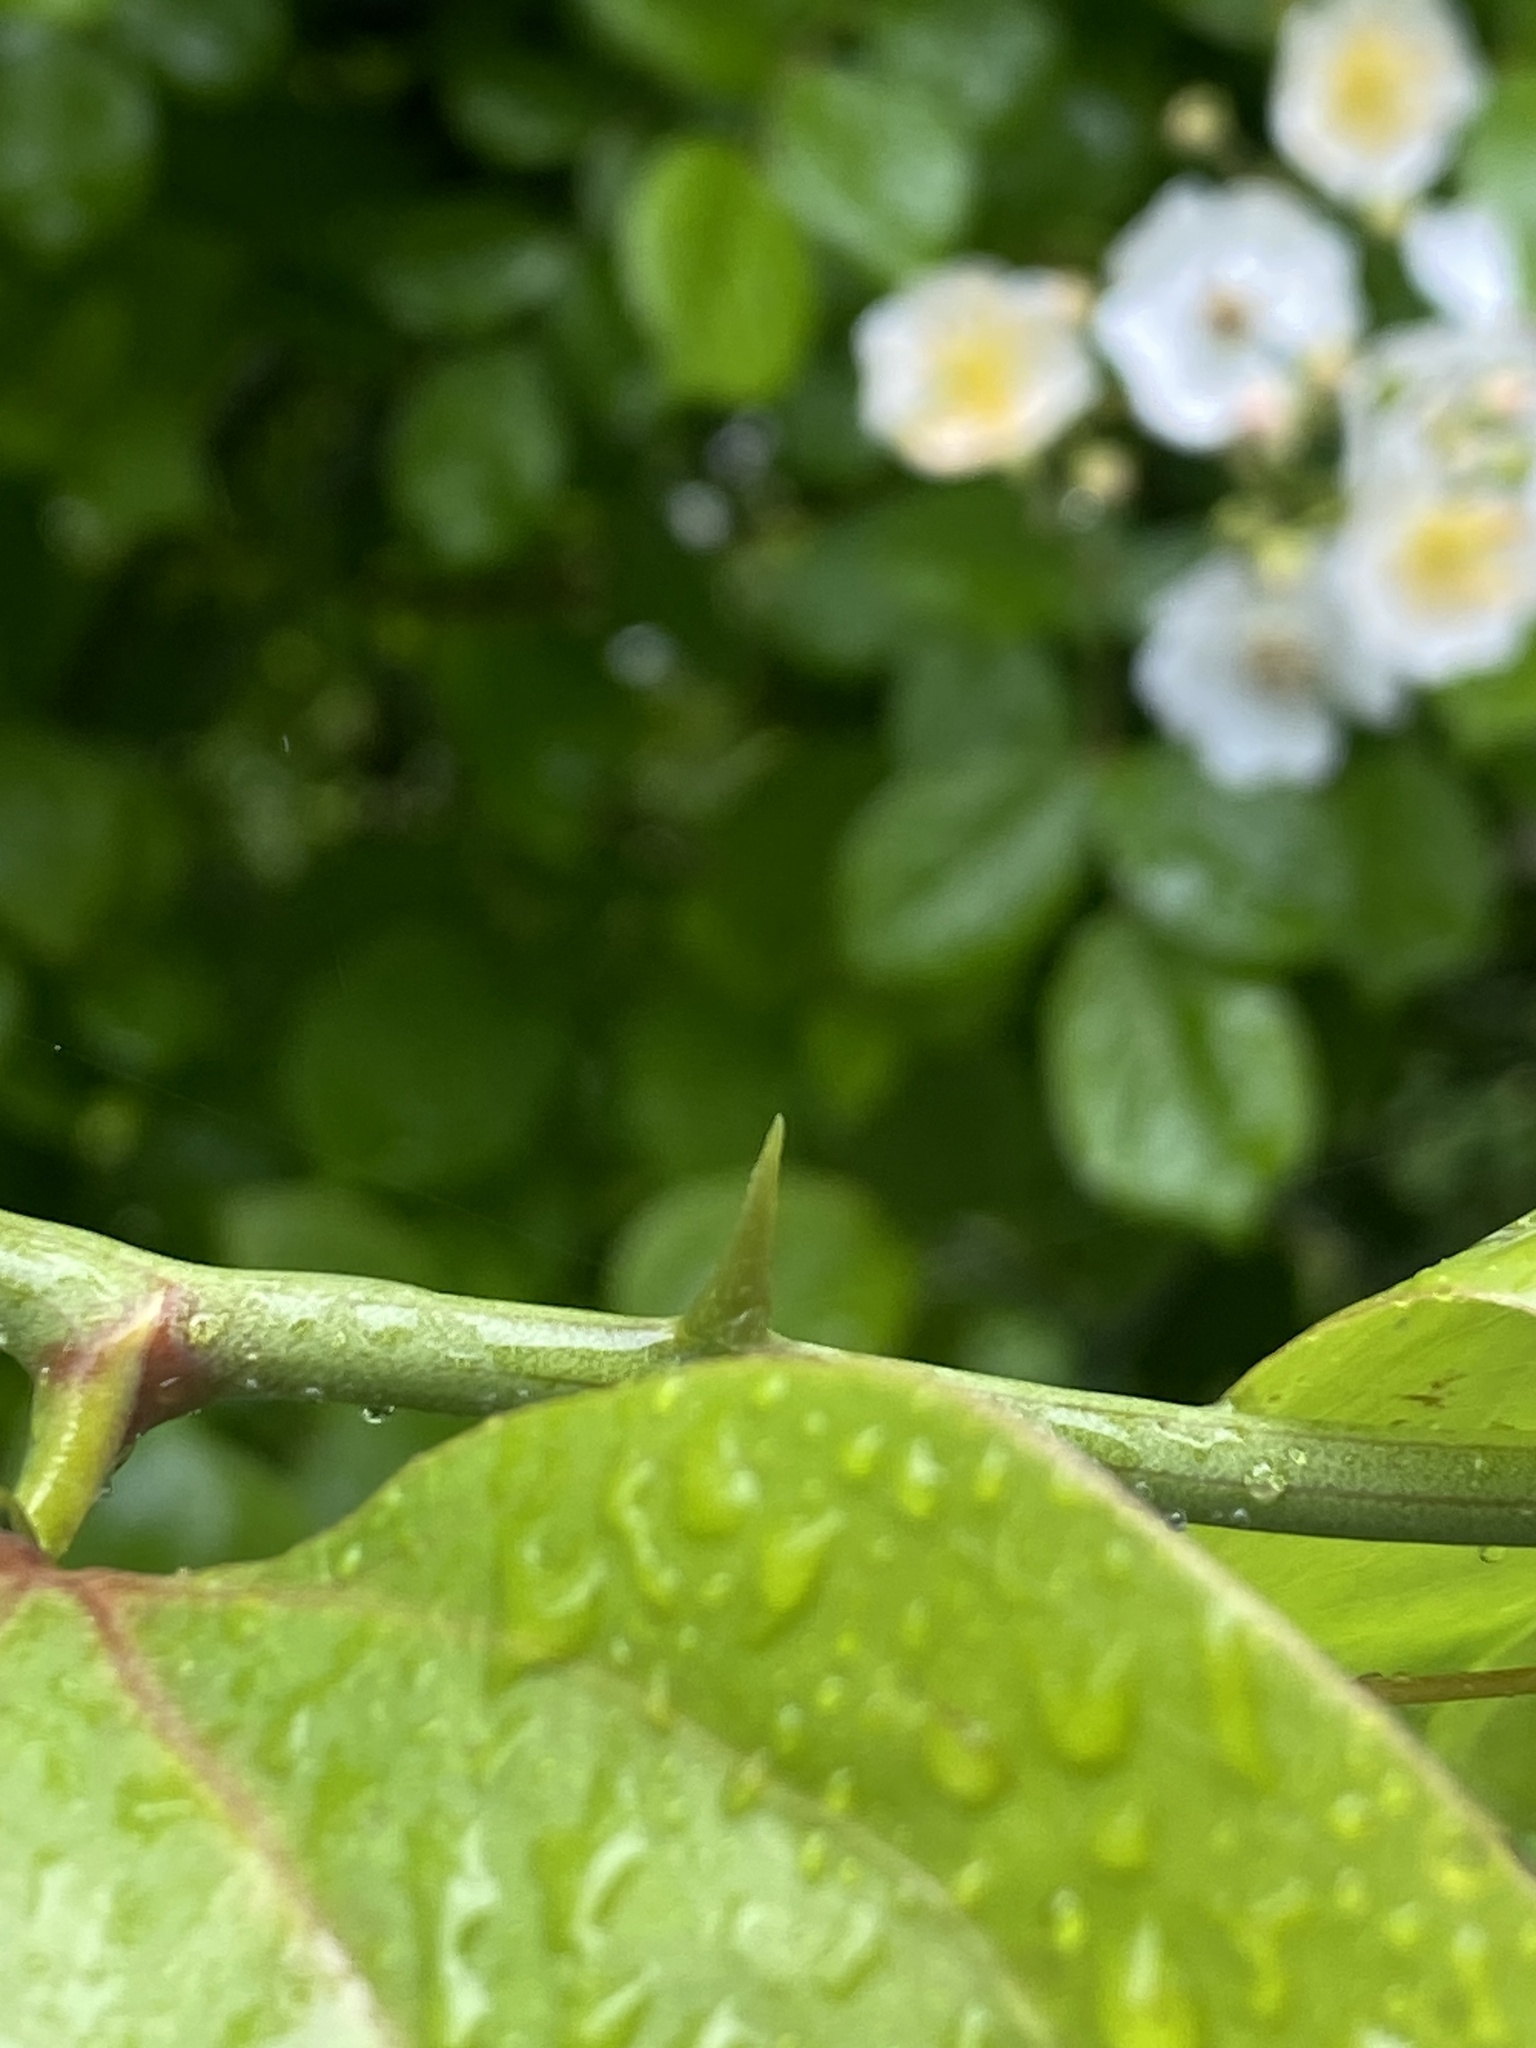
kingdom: Plantae
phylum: Tracheophyta
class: Liliopsida
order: Liliales
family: Smilacaceae
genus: Smilax
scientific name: Smilax rotundifolia
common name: Bullbriar
